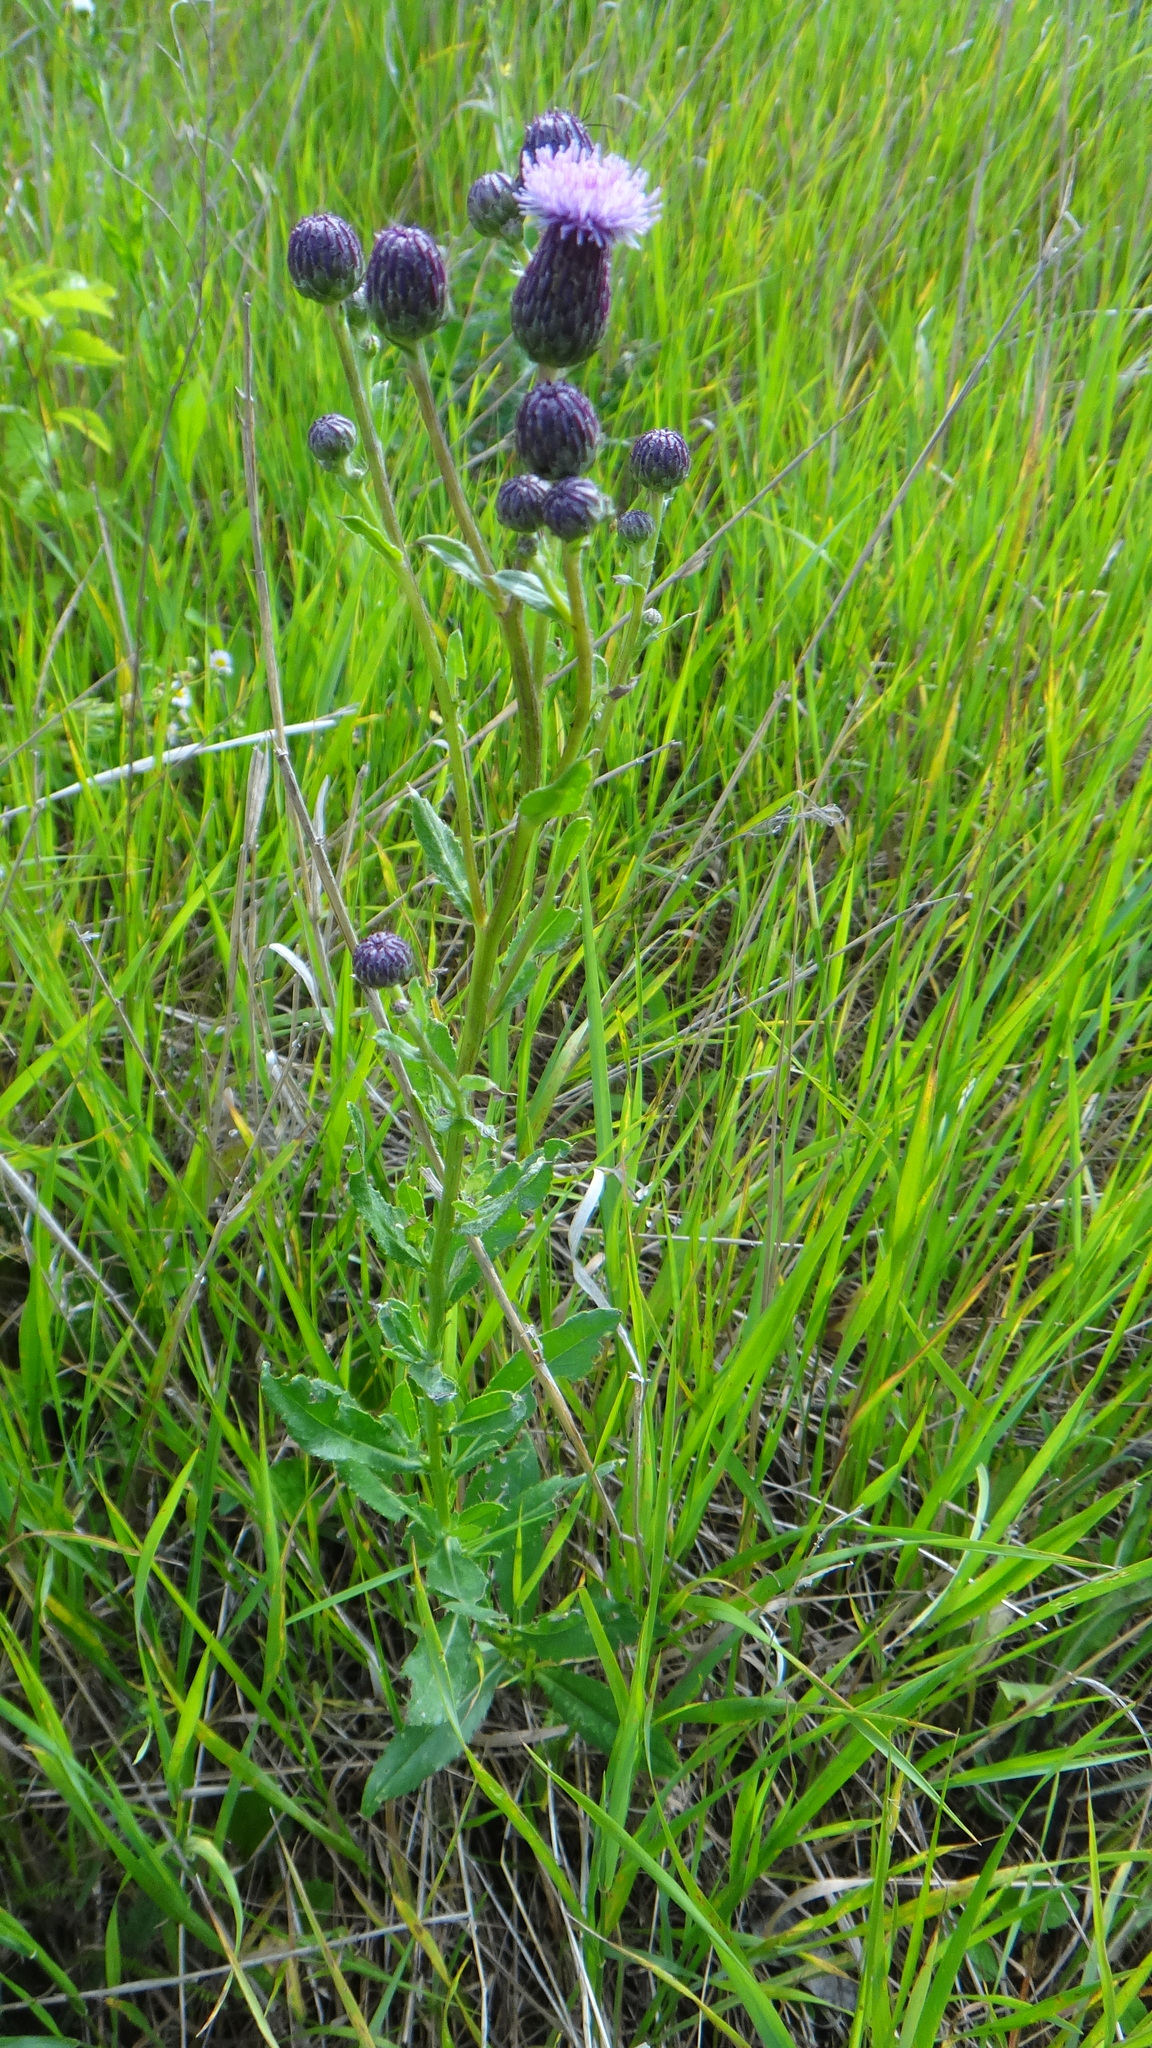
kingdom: Plantae
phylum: Tracheophyta
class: Magnoliopsida
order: Asterales
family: Asteraceae
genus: Cirsium
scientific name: Cirsium arvense
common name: Creeping thistle
